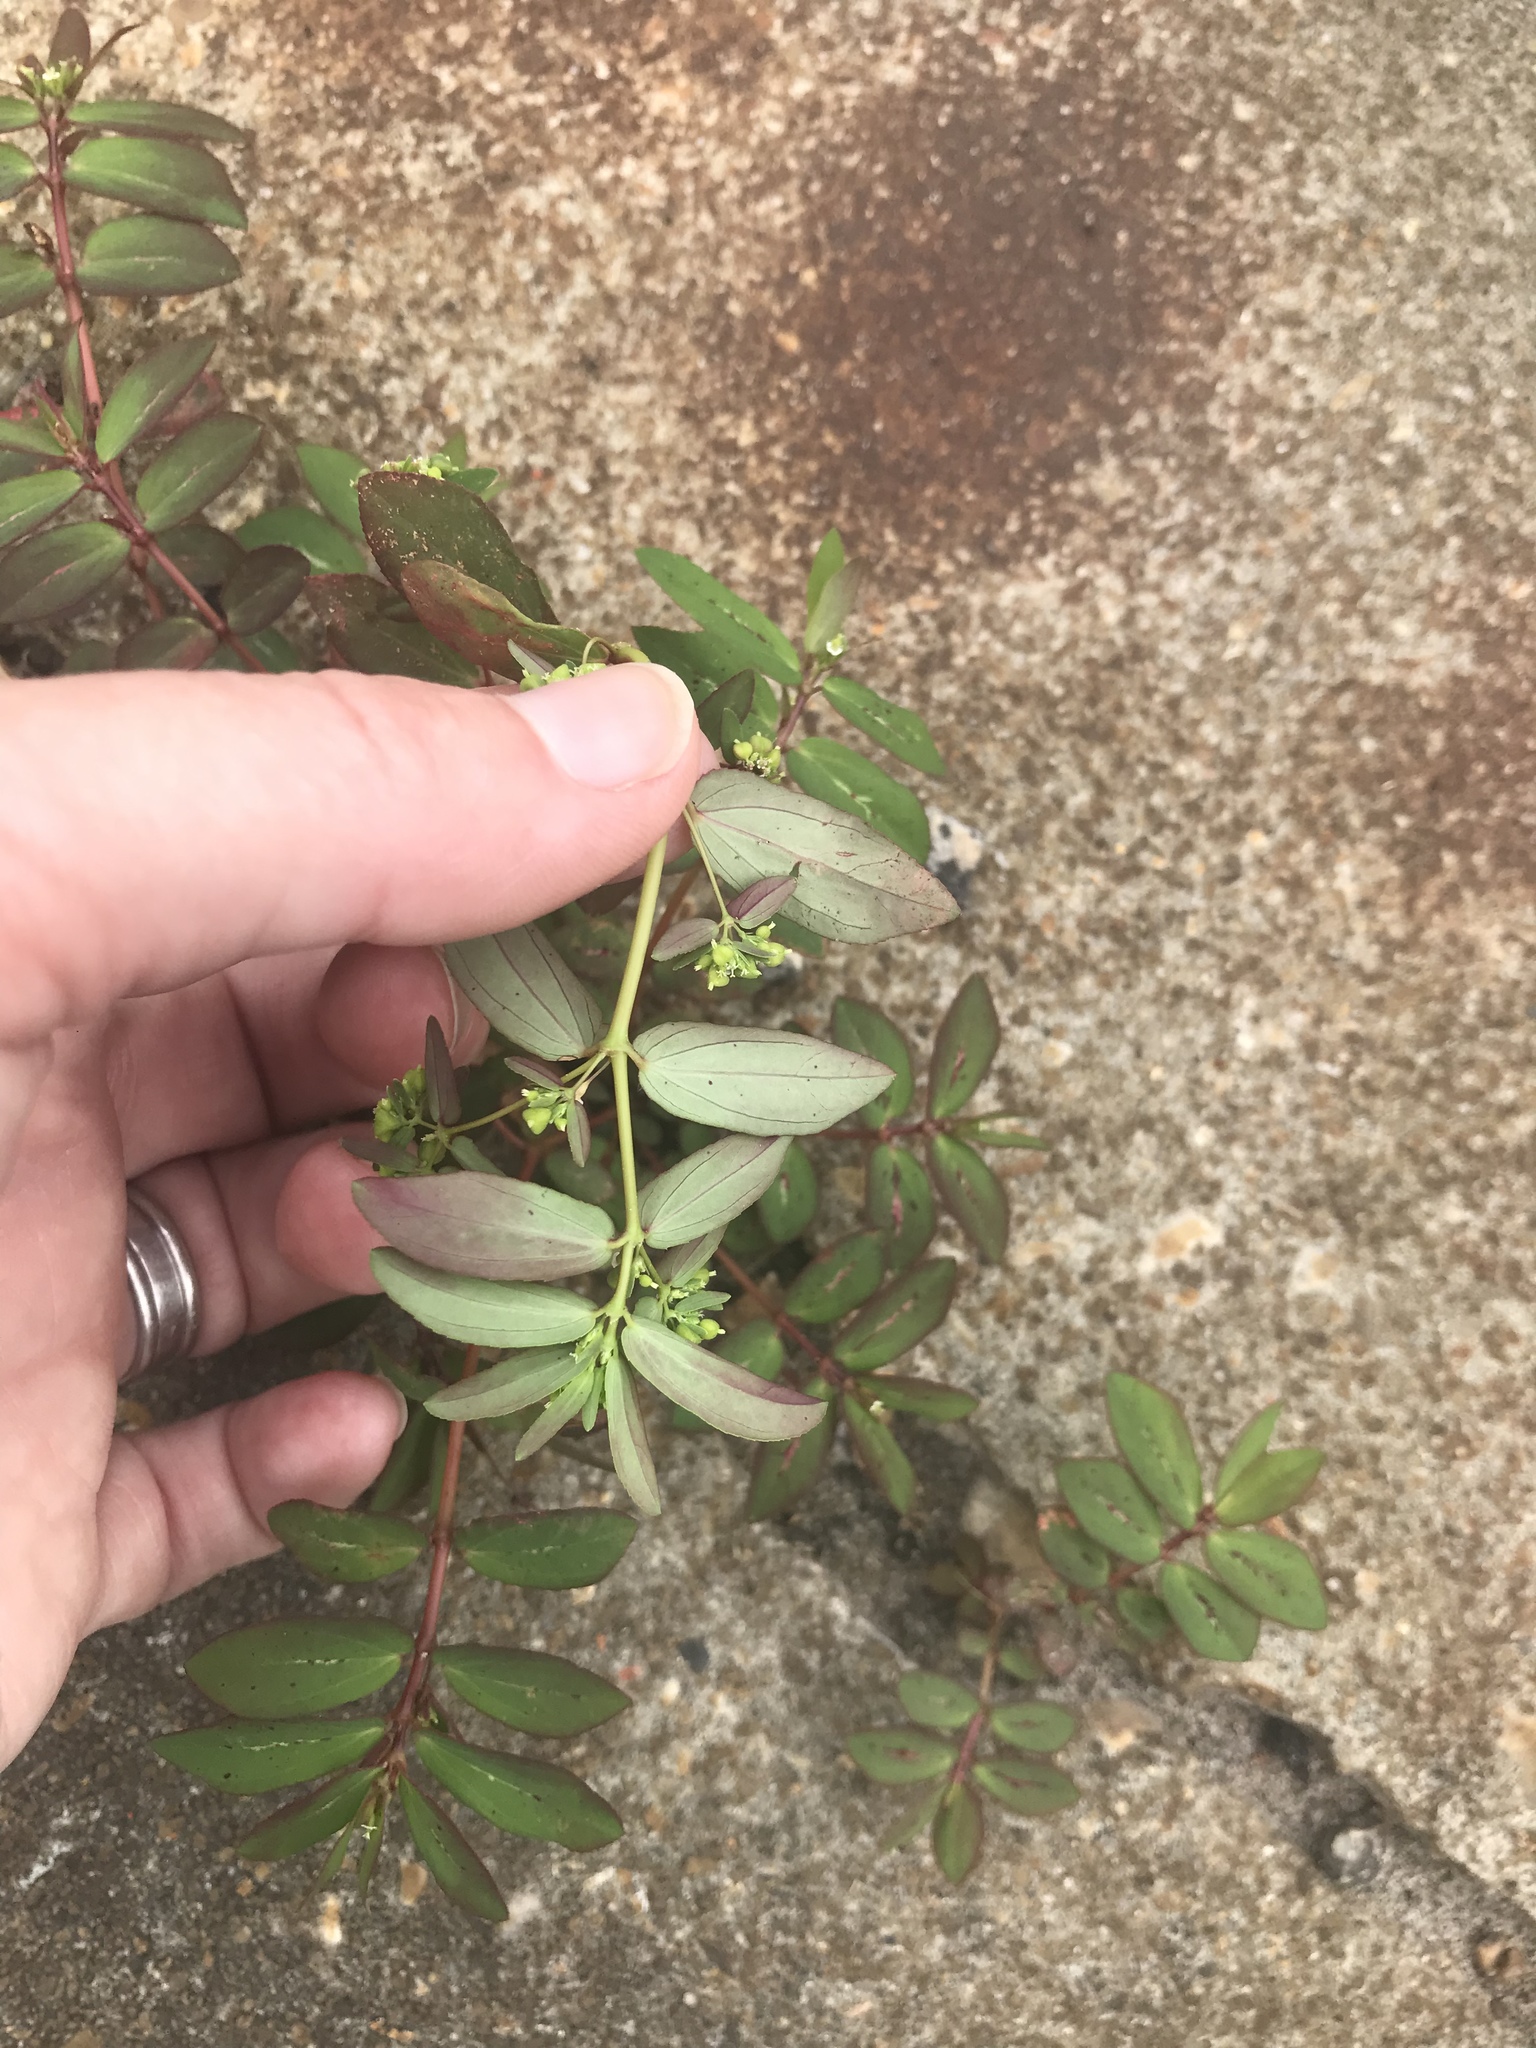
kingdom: Plantae
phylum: Tracheophyta
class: Magnoliopsida
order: Malpighiales
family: Euphorbiaceae
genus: Euphorbia
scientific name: Euphorbia hyssopifolia
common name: Hyssopleaf sandmat
